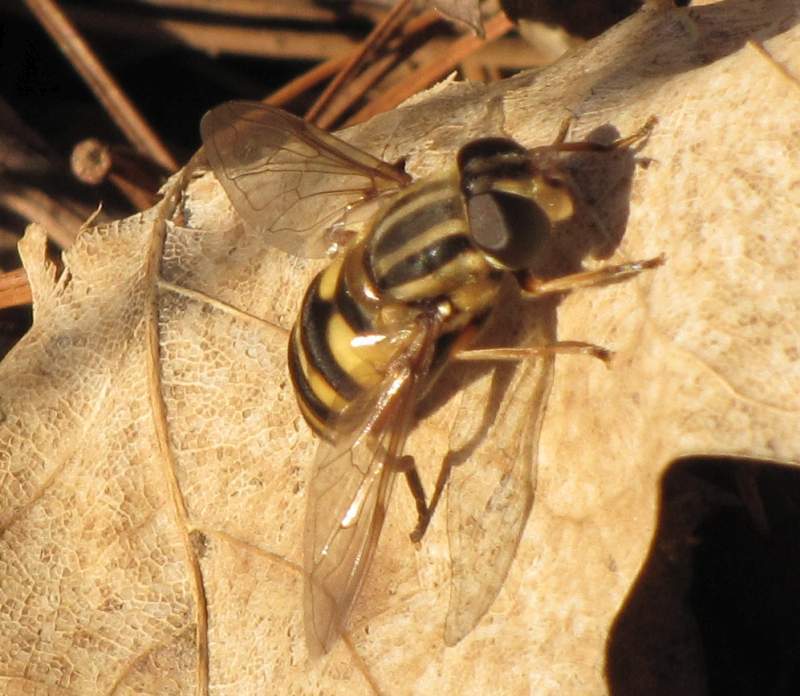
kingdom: Animalia
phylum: Arthropoda
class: Insecta
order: Diptera
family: Syrphidae
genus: Helophilus
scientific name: Helophilus fasciatus
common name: Narrow-headed marsh fly
